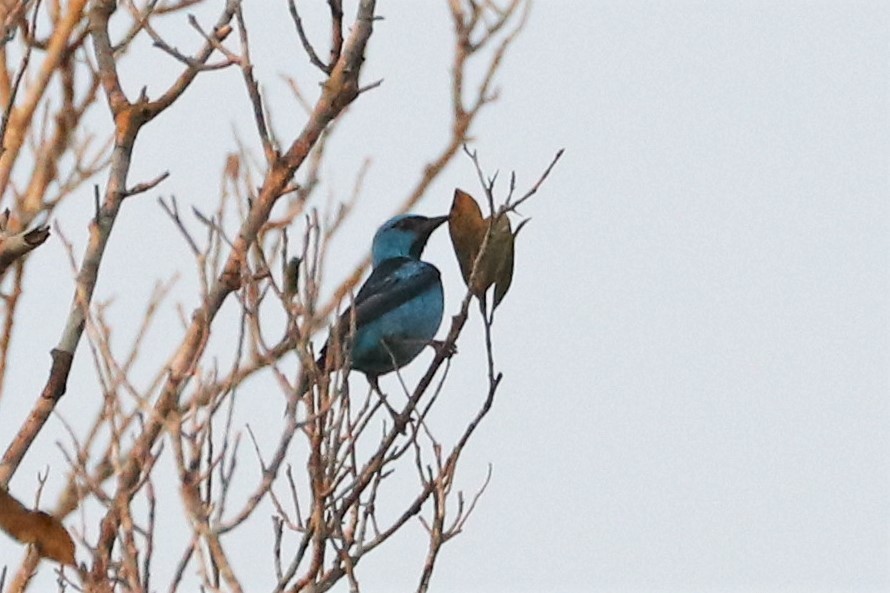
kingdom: Animalia
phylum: Chordata
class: Aves
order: Passeriformes
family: Thraupidae
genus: Dacnis
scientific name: Dacnis cayana
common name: Blue dacnis
